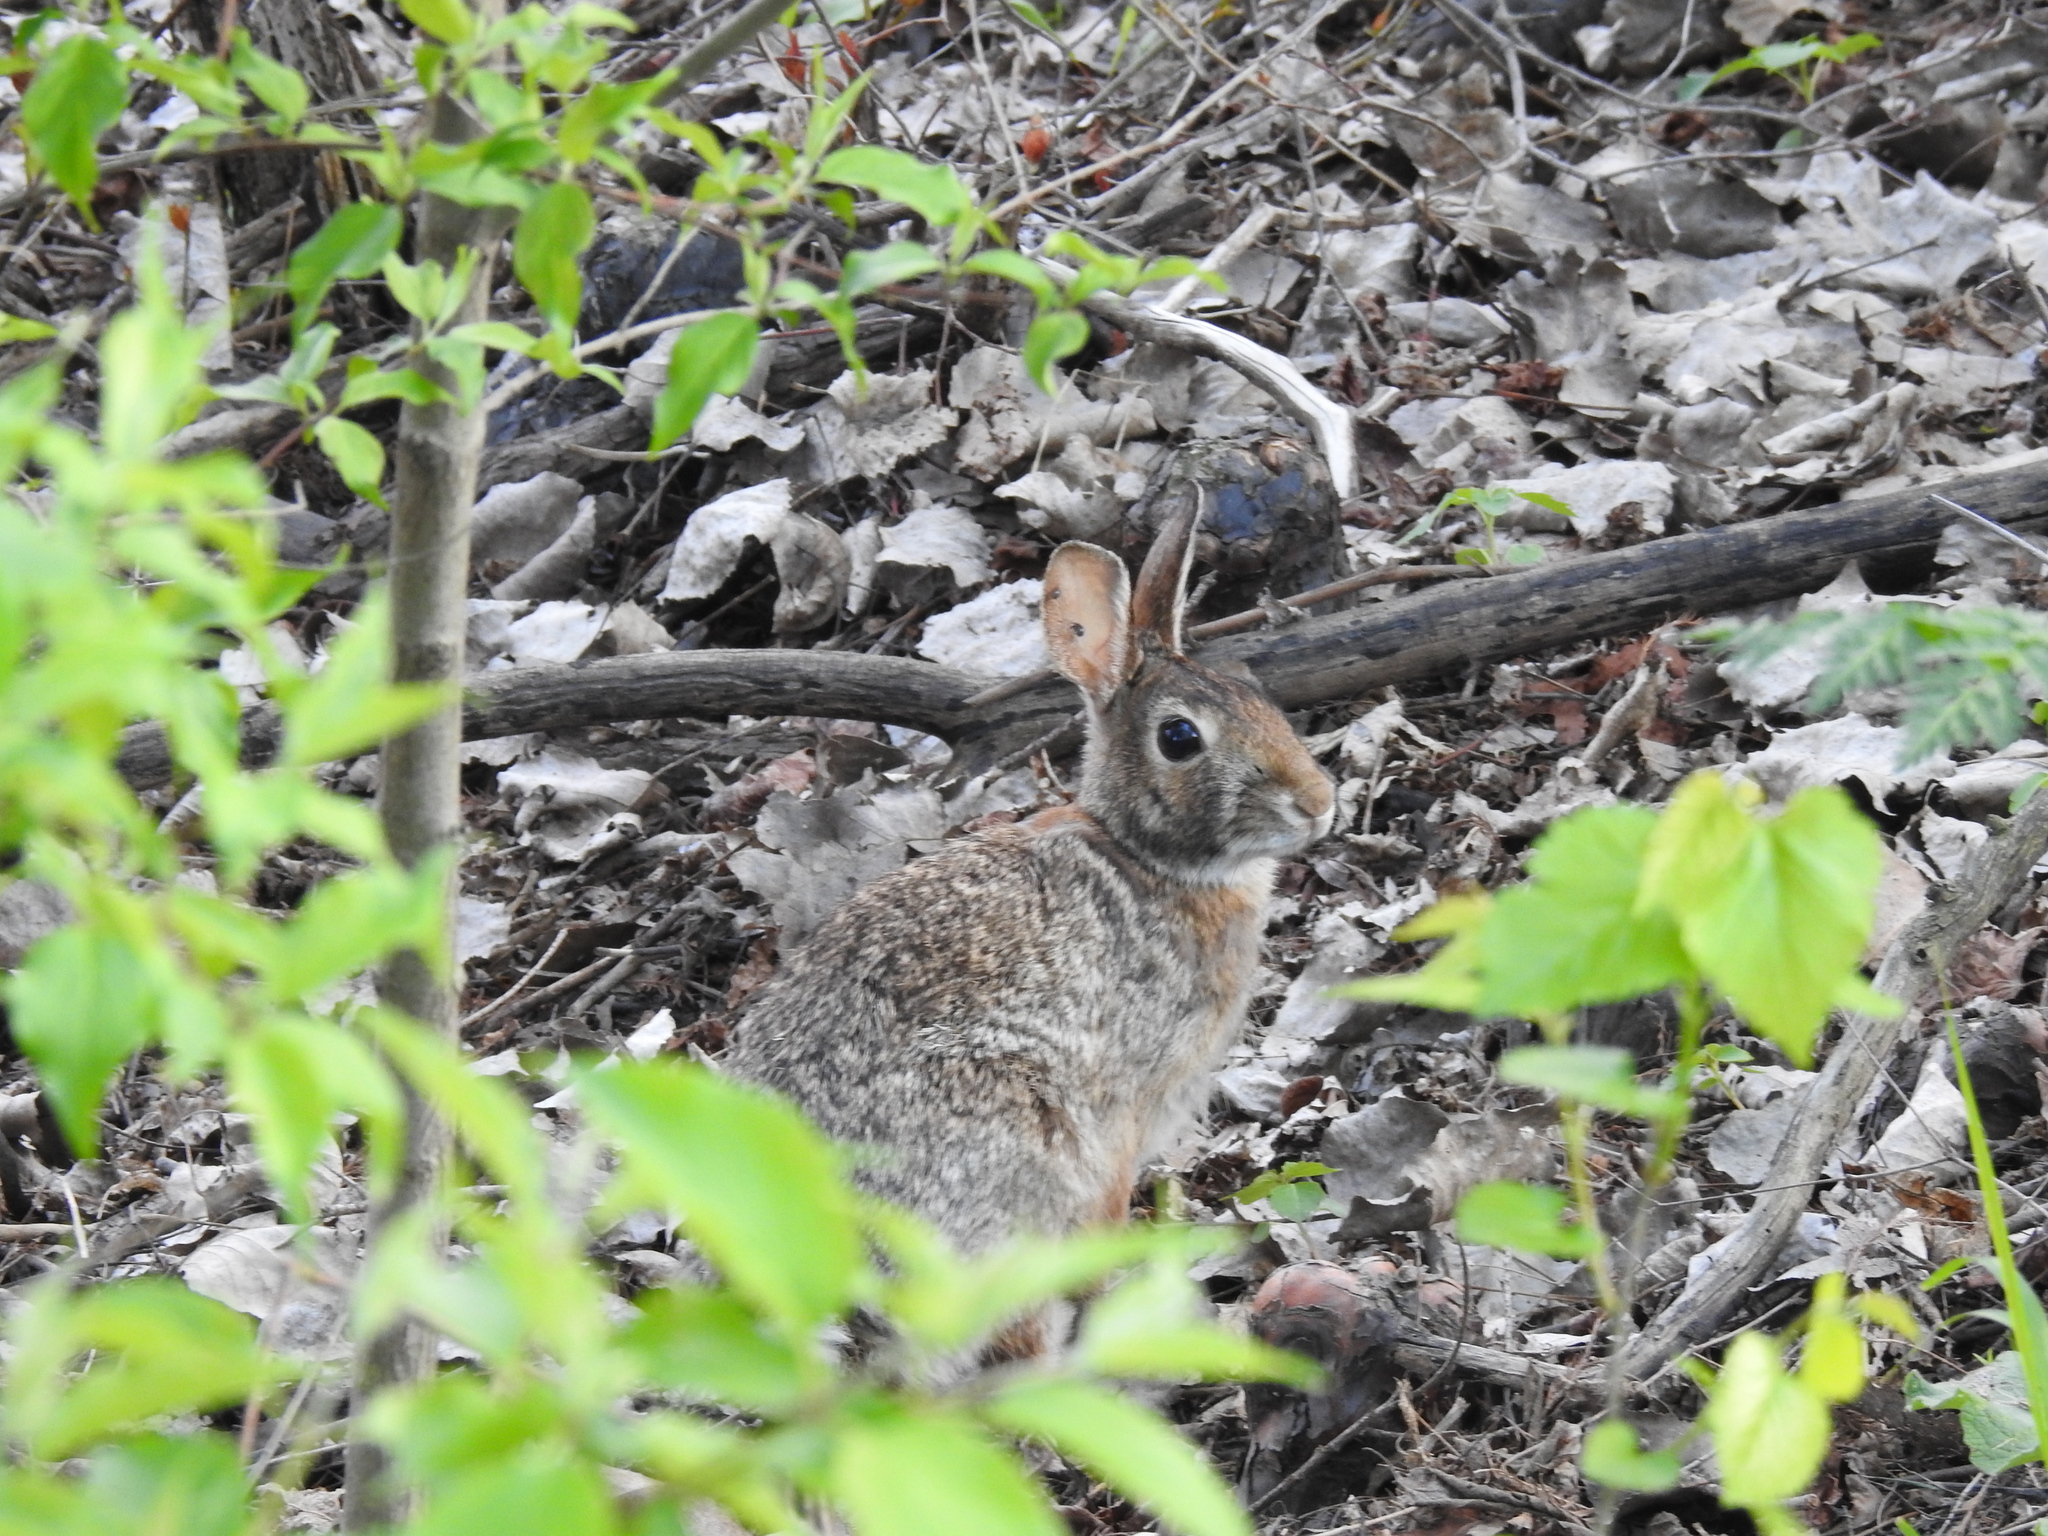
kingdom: Animalia
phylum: Chordata
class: Mammalia
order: Lagomorpha
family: Leporidae
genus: Sylvilagus
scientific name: Sylvilagus floridanus
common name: Eastern cottontail
